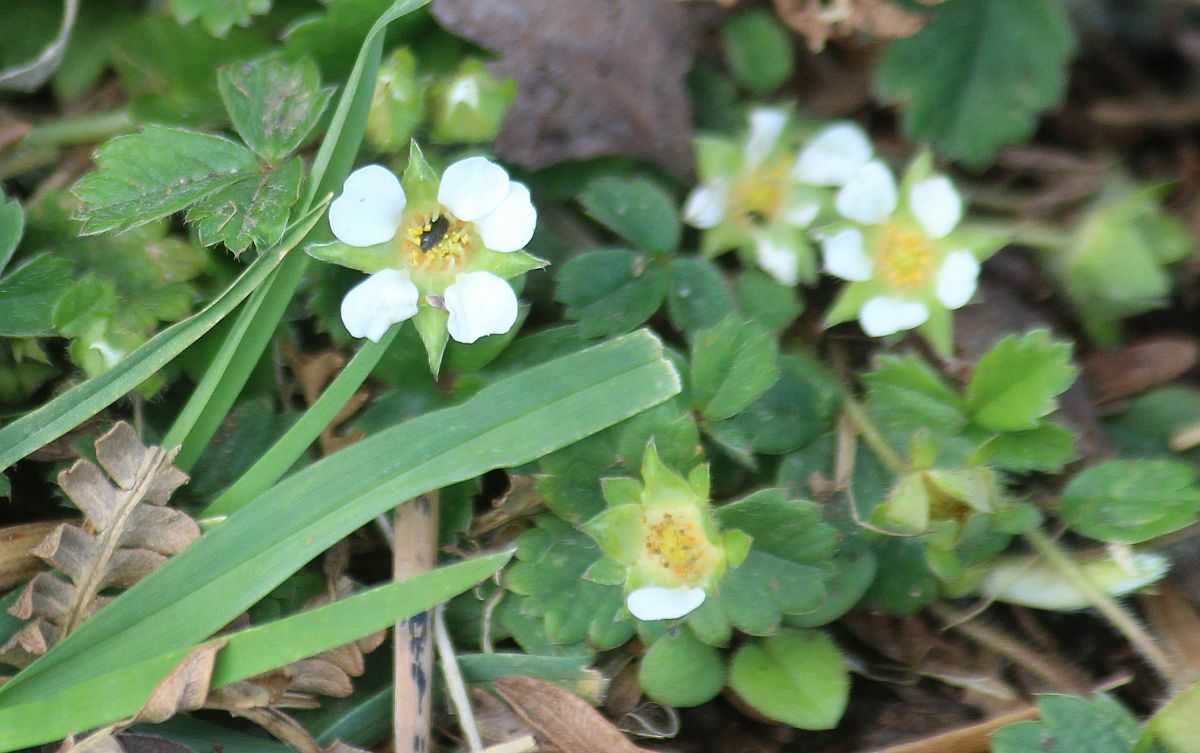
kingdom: Plantae
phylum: Tracheophyta
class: Magnoliopsida
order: Rosales
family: Rosaceae
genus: Potentilla
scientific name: Potentilla sterilis
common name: Barren strawberry
